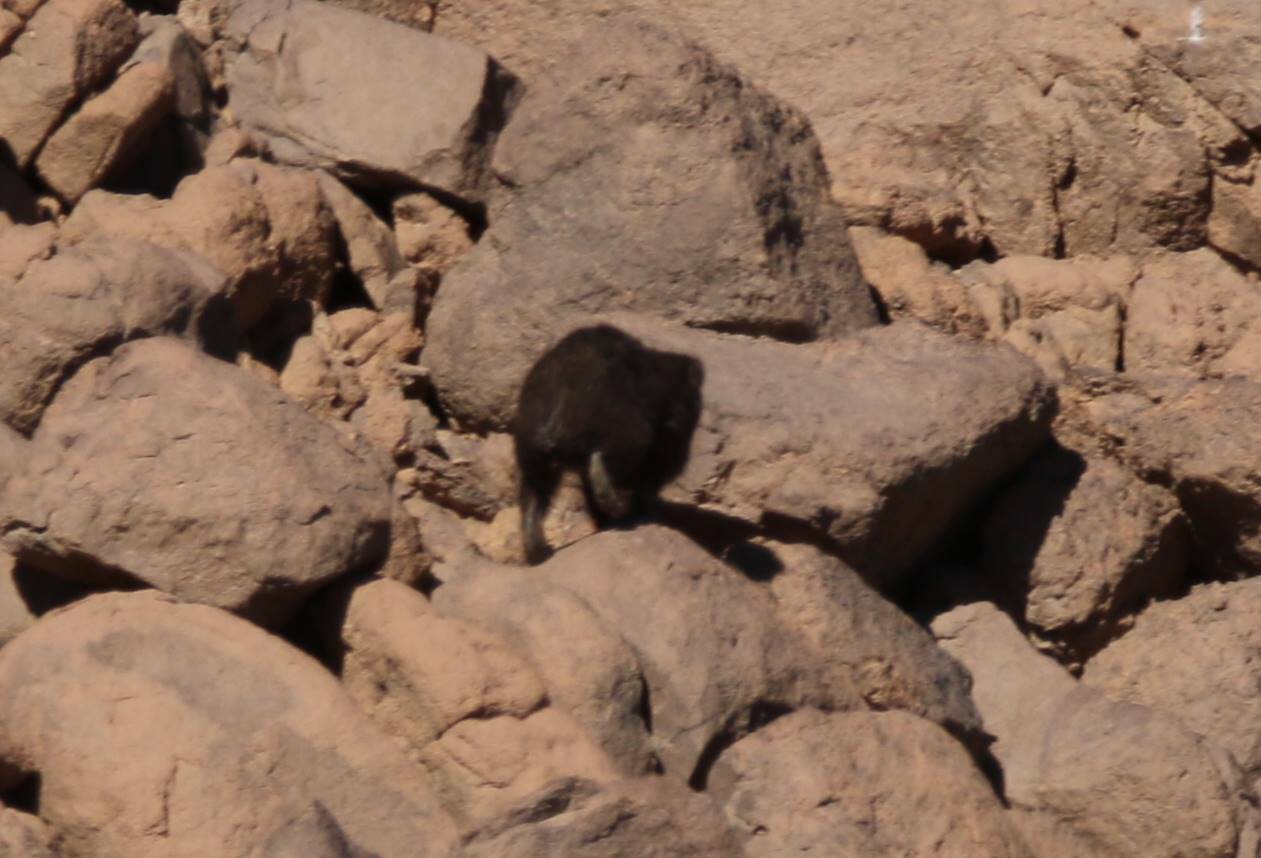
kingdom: Animalia
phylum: Chordata
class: Mammalia
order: Hyracoidea
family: Procaviidae
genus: Procavia
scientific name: Procavia capensis
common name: Rock hyrax
